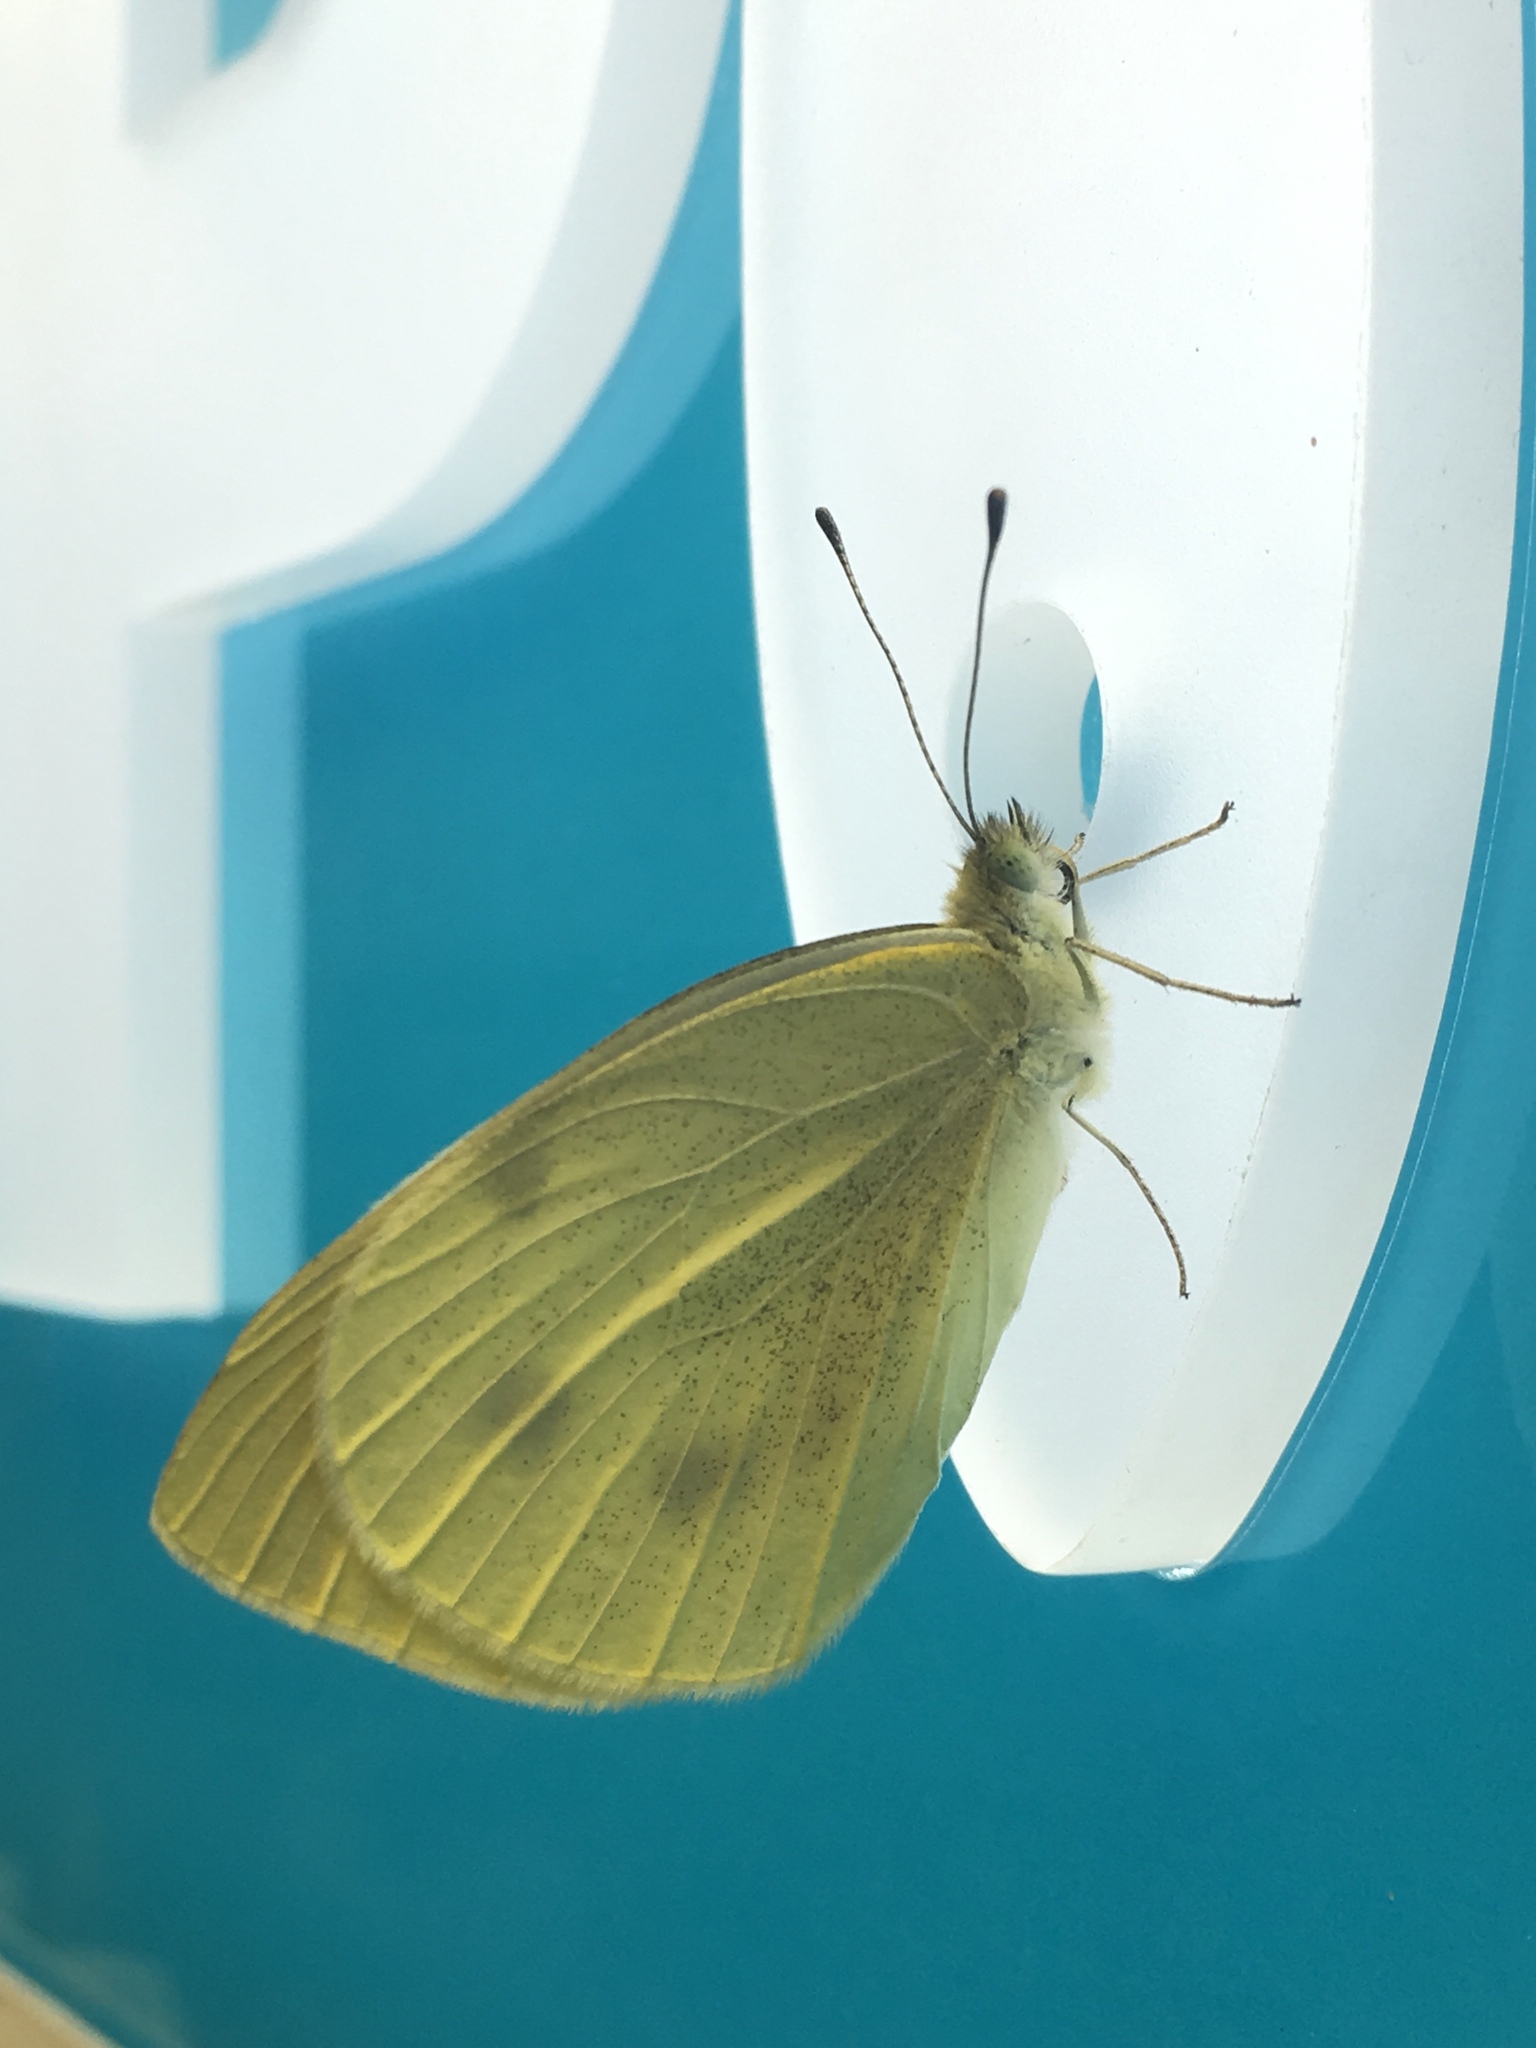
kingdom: Animalia
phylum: Arthropoda
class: Insecta
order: Lepidoptera
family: Pieridae
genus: Pieris
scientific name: Pieris rapae
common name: Small white
